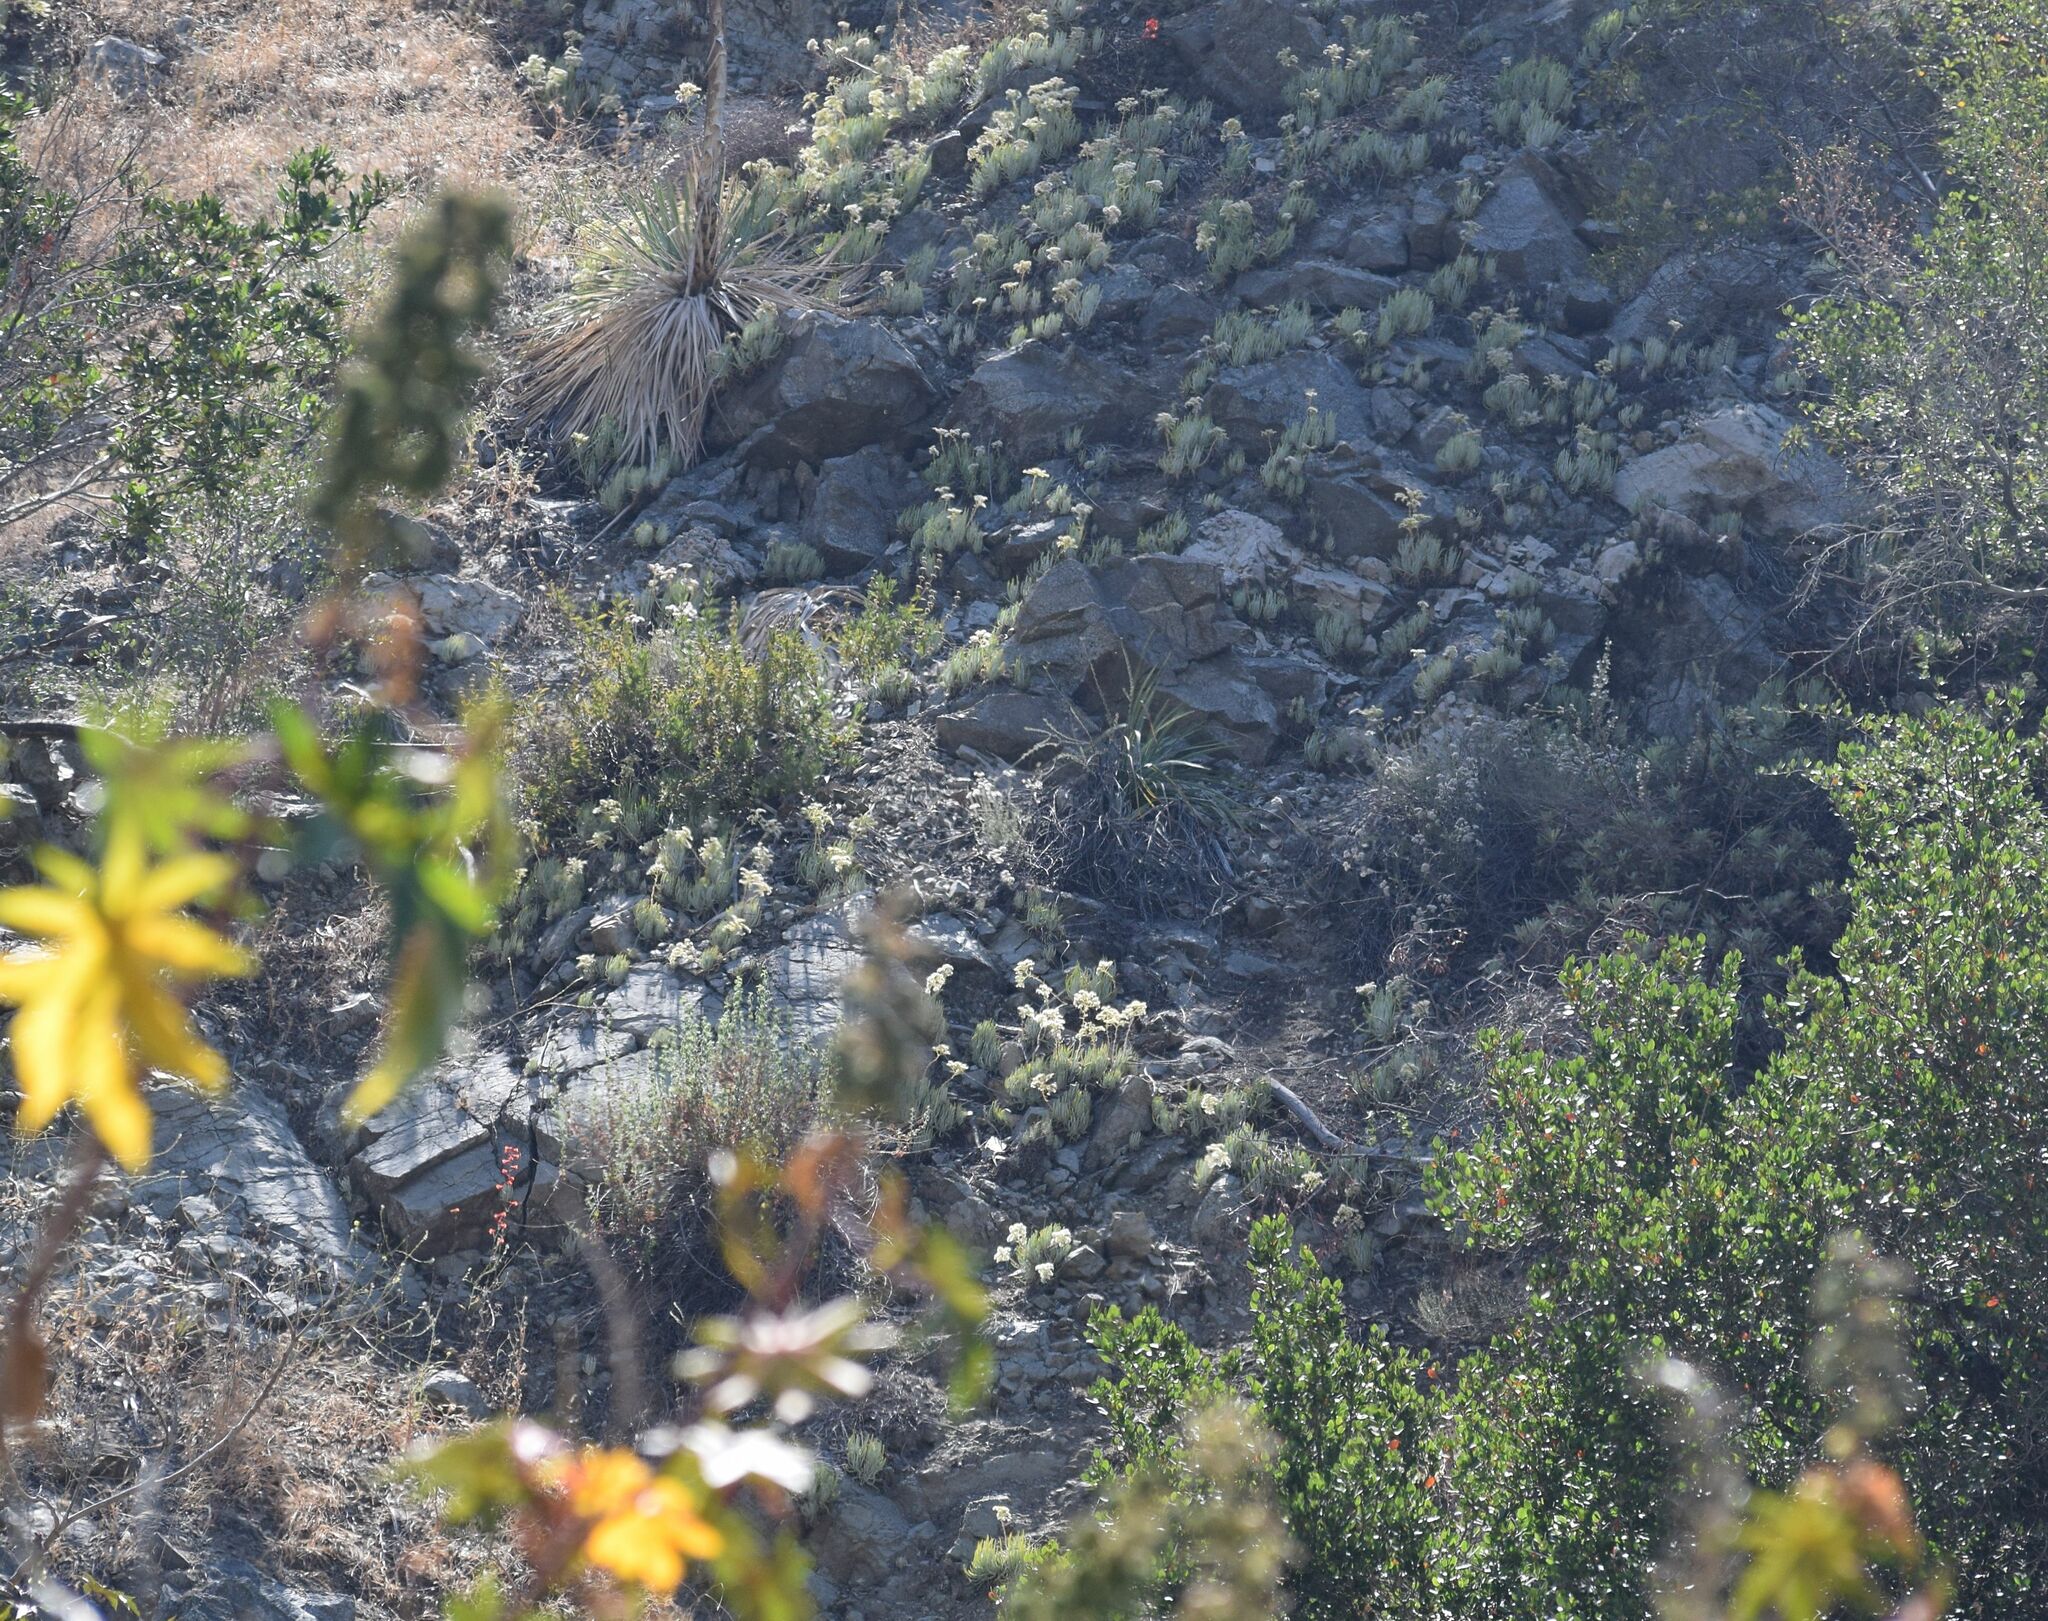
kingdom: Plantae
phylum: Tracheophyta
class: Magnoliopsida
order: Saxifragales
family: Crassulaceae
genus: Dudleya
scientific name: Dudleya densiflora
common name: San gabriel mountains dudleya
